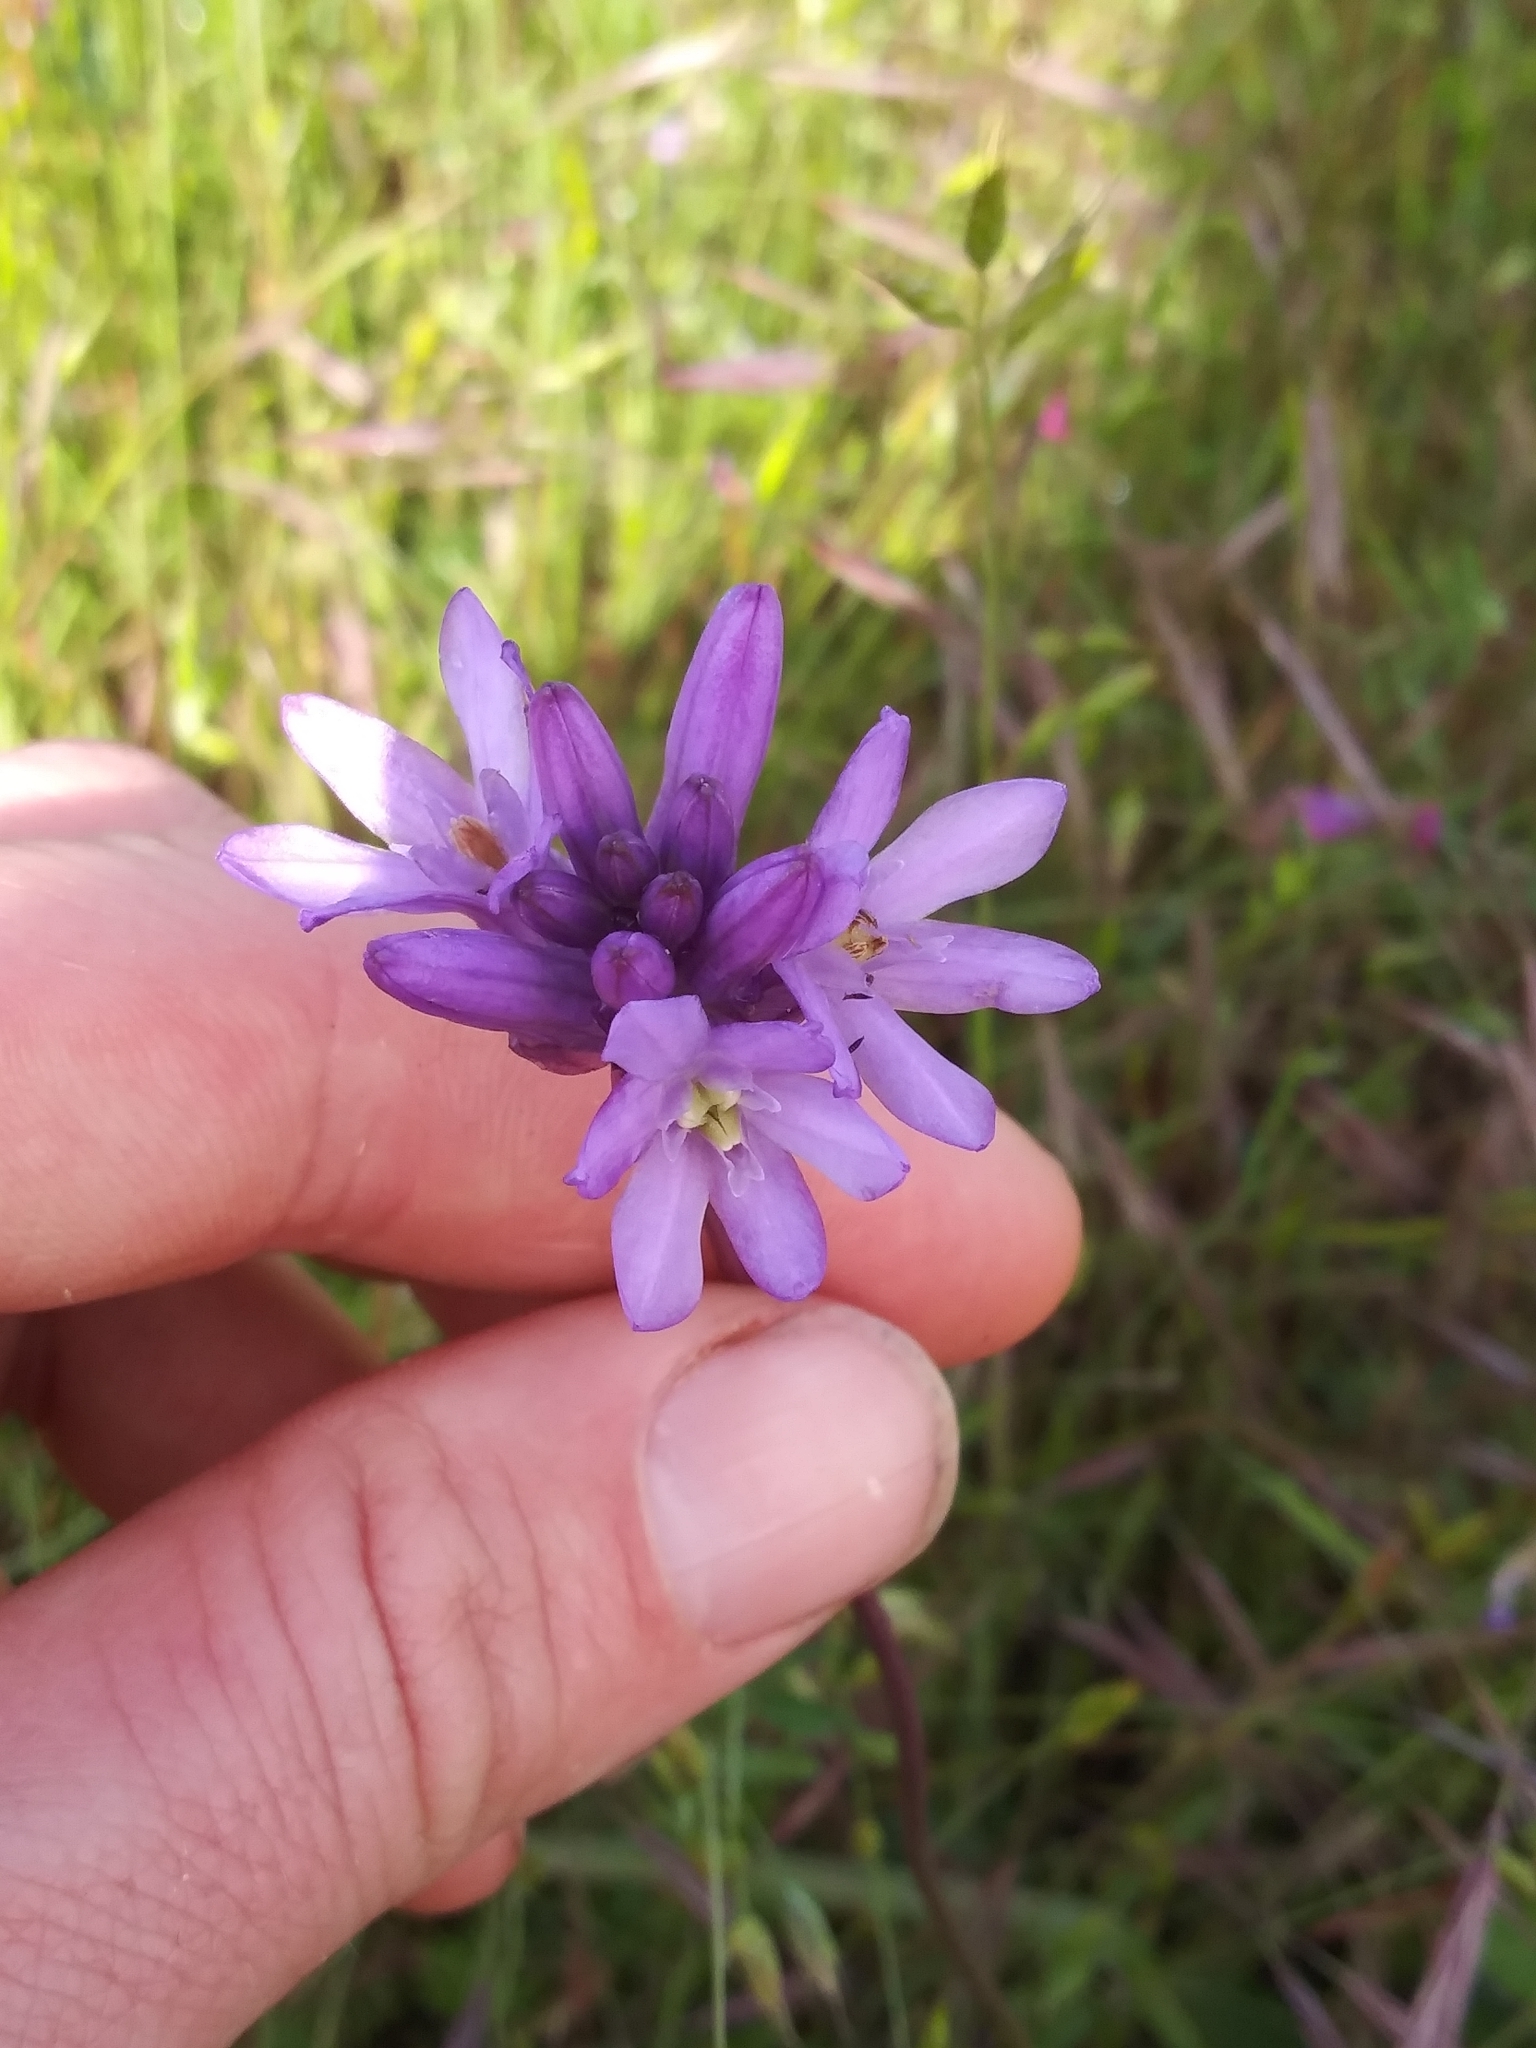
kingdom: Plantae
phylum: Tracheophyta
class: Liliopsida
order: Asparagales
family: Asparagaceae
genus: Dichelostemma
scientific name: Dichelostemma congestum
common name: Fork-tooth ookow
